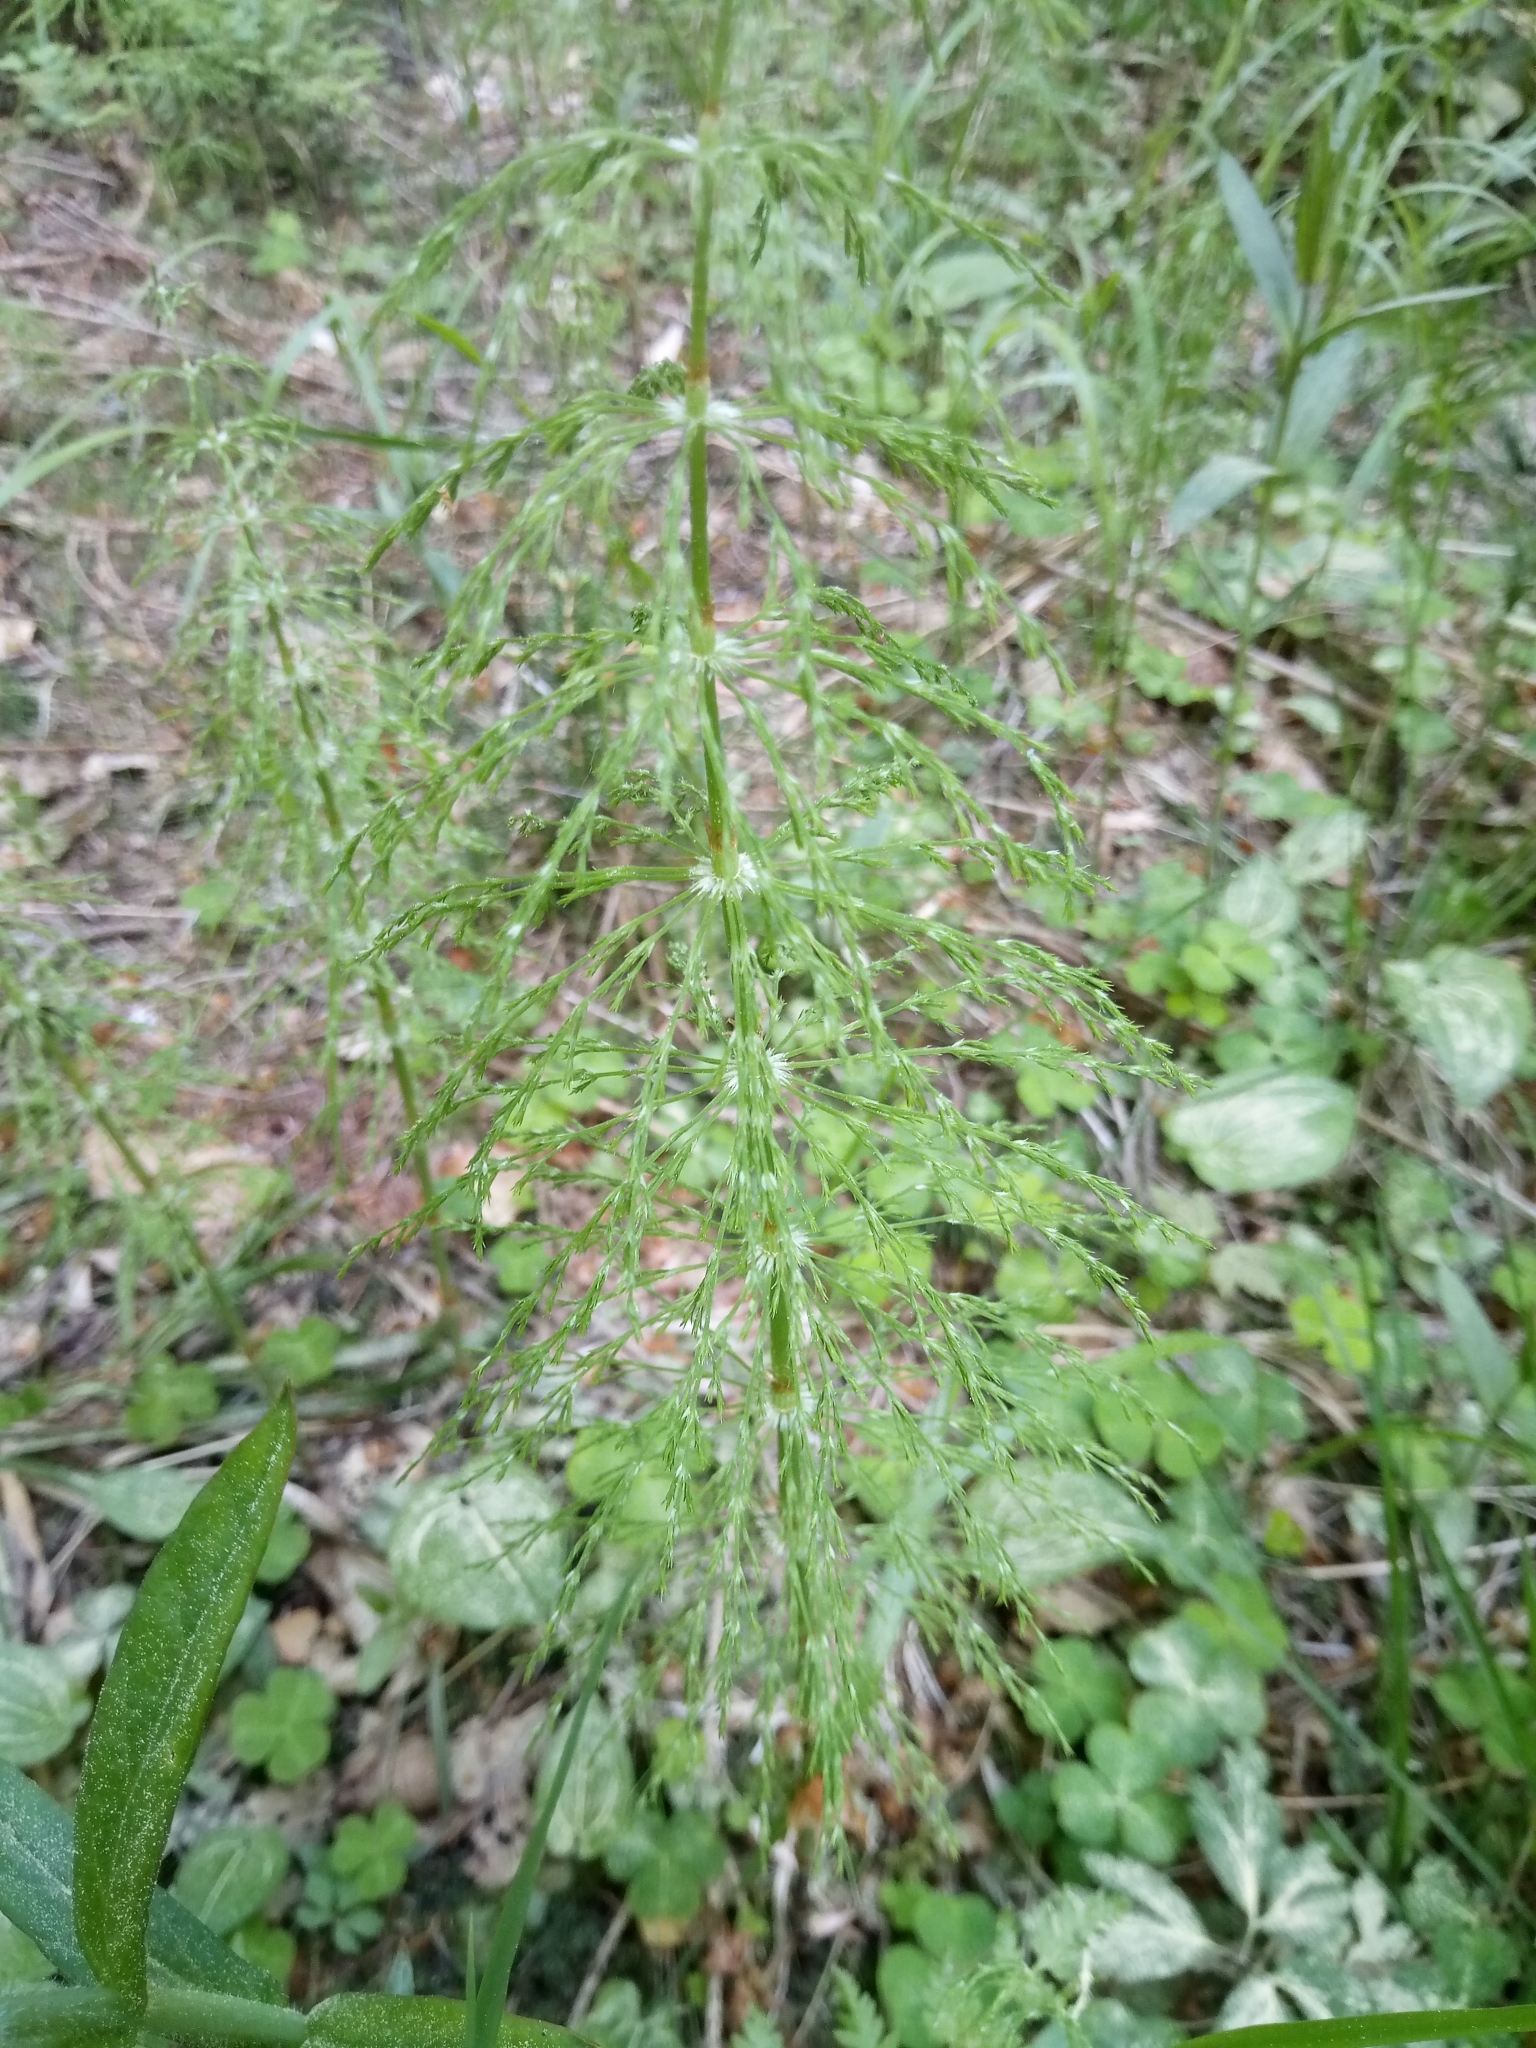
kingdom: Plantae
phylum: Tracheophyta
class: Polypodiopsida
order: Equisetales
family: Equisetaceae
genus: Equisetum
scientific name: Equisetum arvense
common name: Field horsetail
